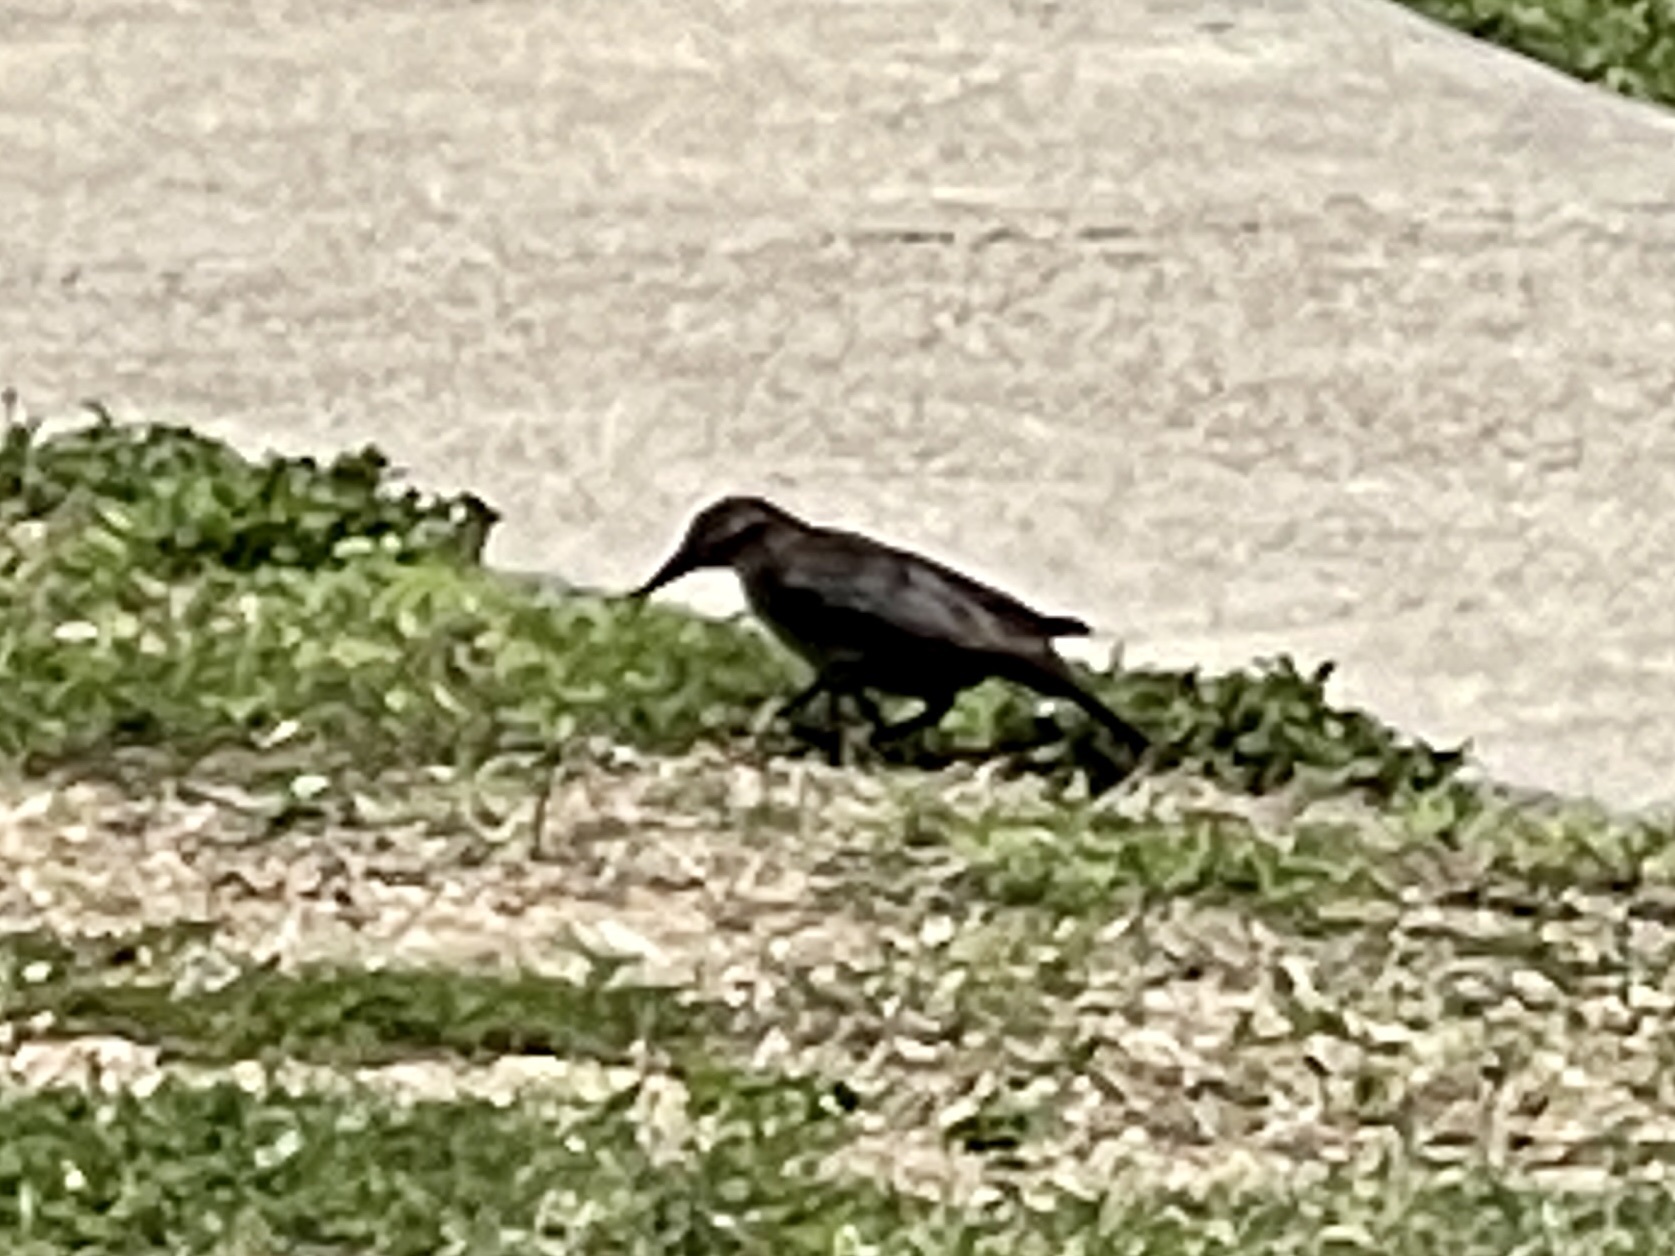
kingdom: Animalia
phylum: Chordata
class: Aves
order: Passeriformes
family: Icteridae
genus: Quiscalus
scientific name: Quiscalus mexicanus
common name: Great-tailed grackle
